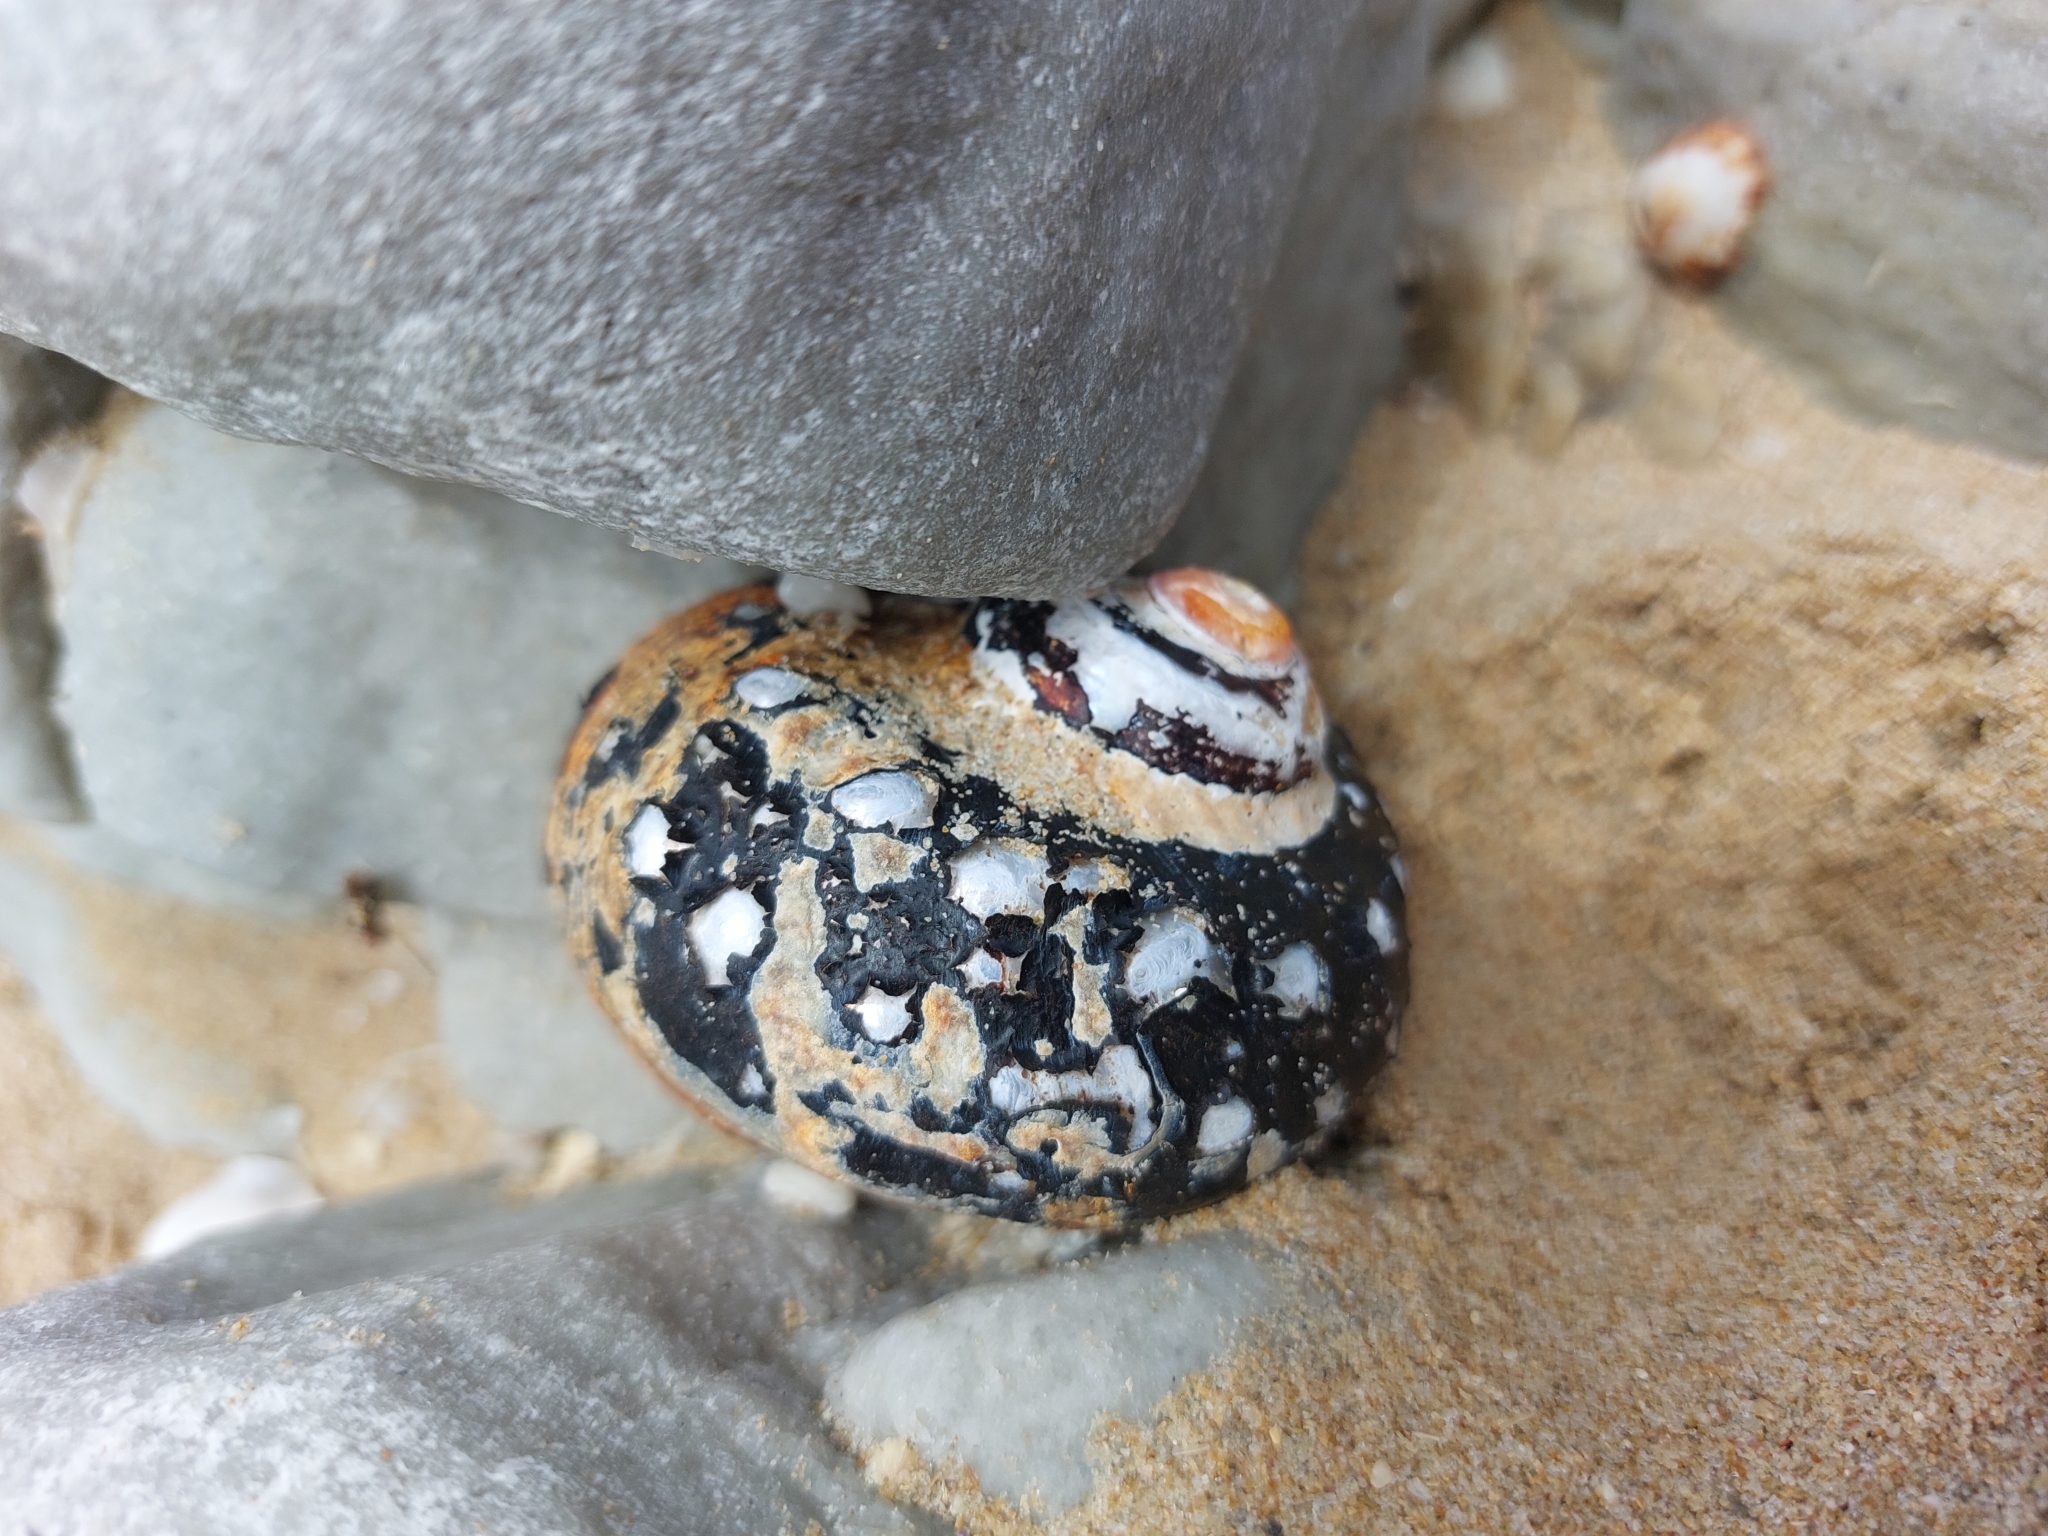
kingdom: Animalia
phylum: Mollusca
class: Gastropoda
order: Trochida
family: Turbinidae
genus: Turbo
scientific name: Turbo sarmaticus
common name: South african turban
